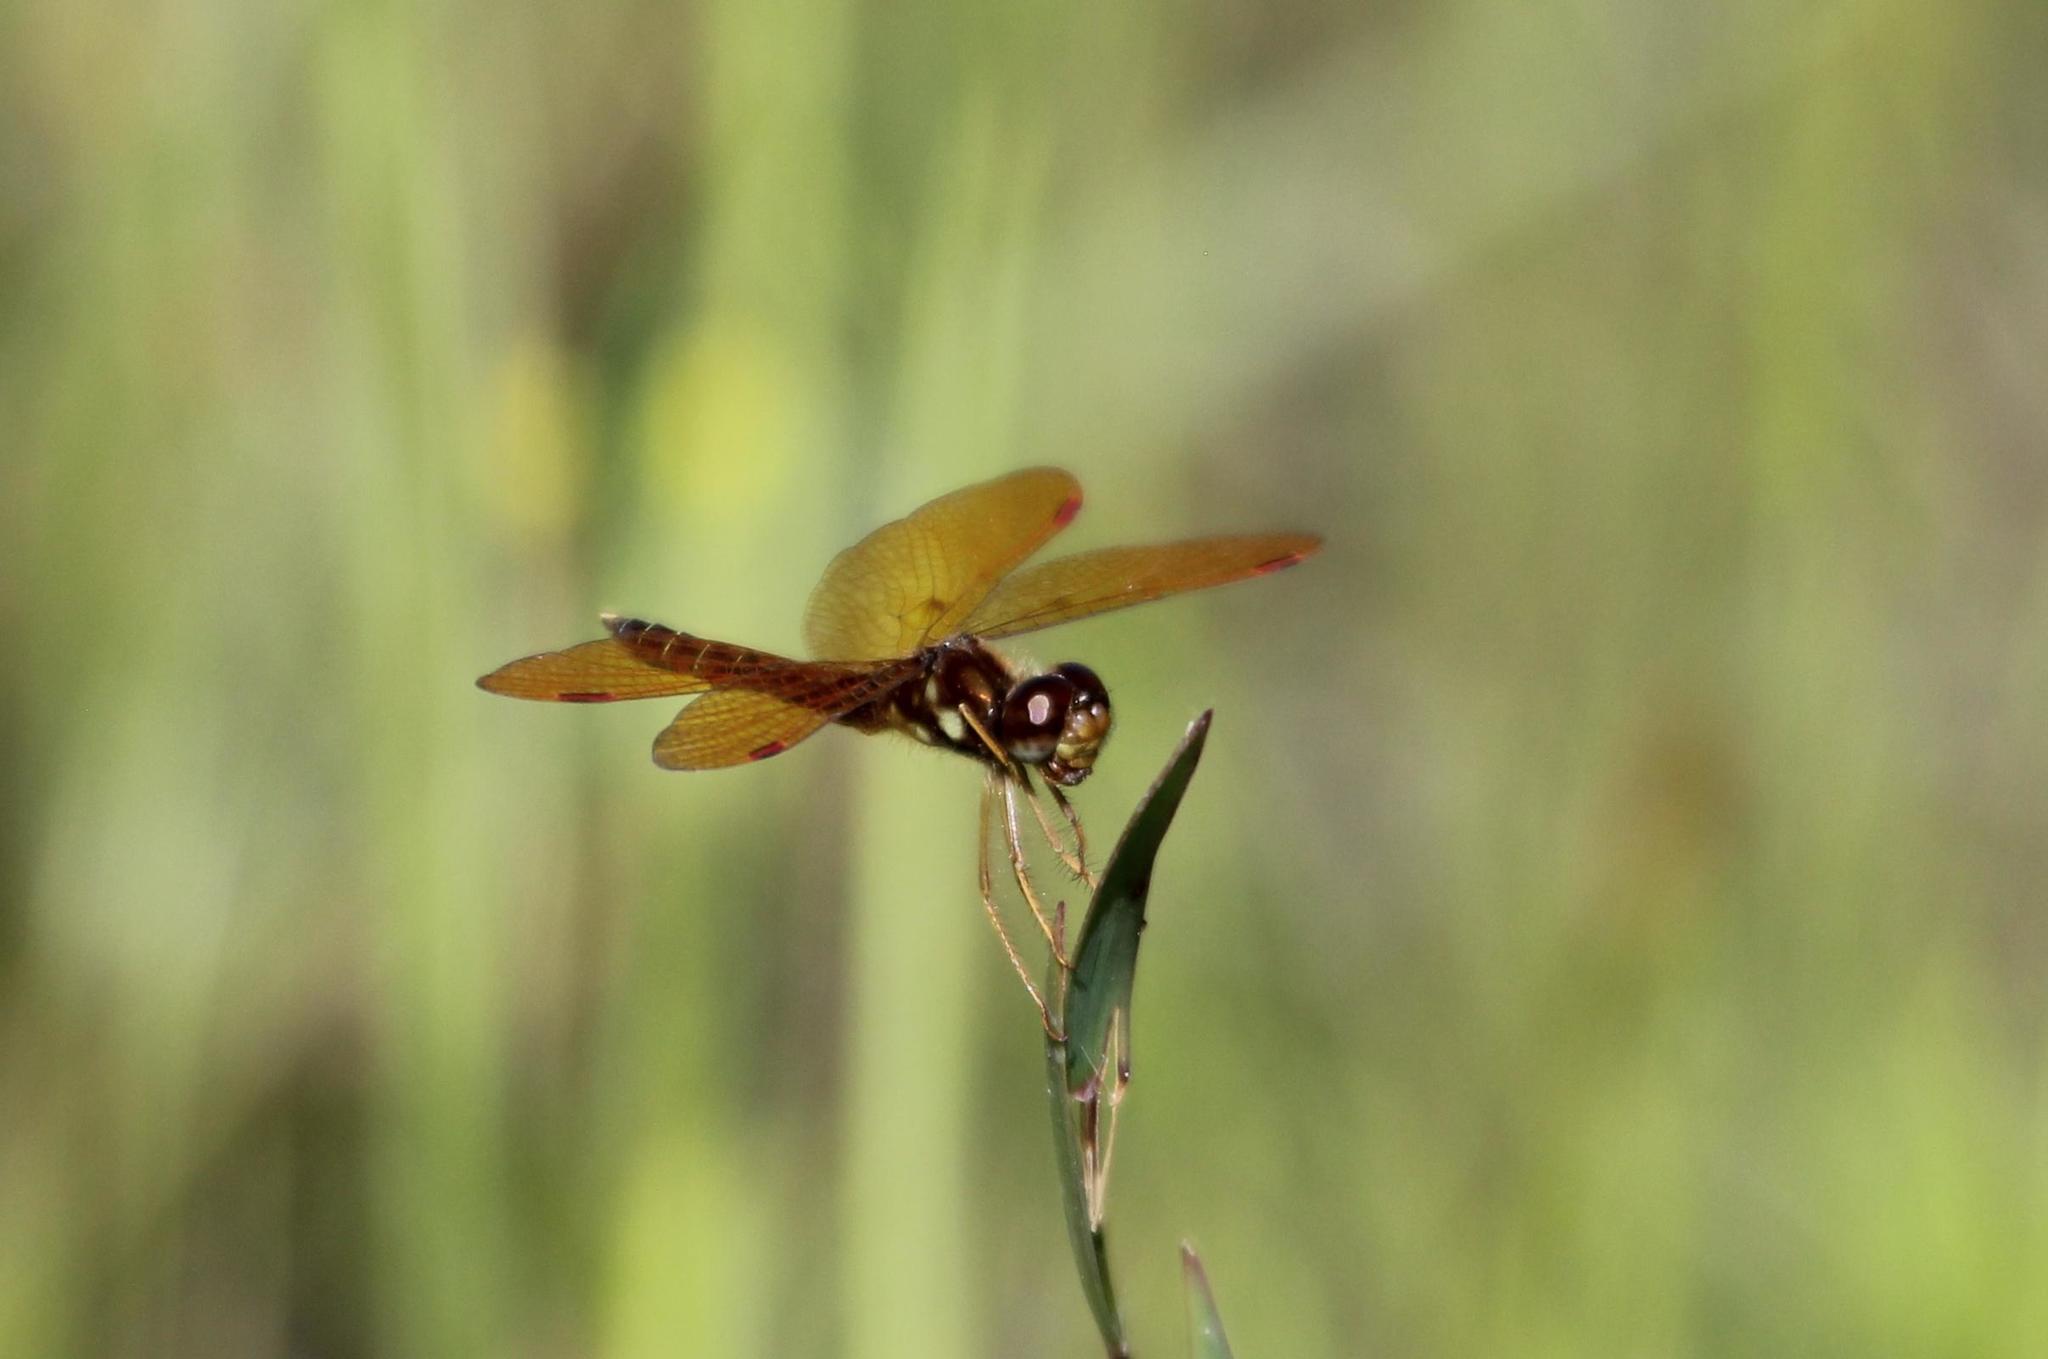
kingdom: Animalia
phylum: Arthropoda
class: Insecta
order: Odonata
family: Libellulidae
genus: Perithemis
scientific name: Perithemis tenera
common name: Eastern amberwing
